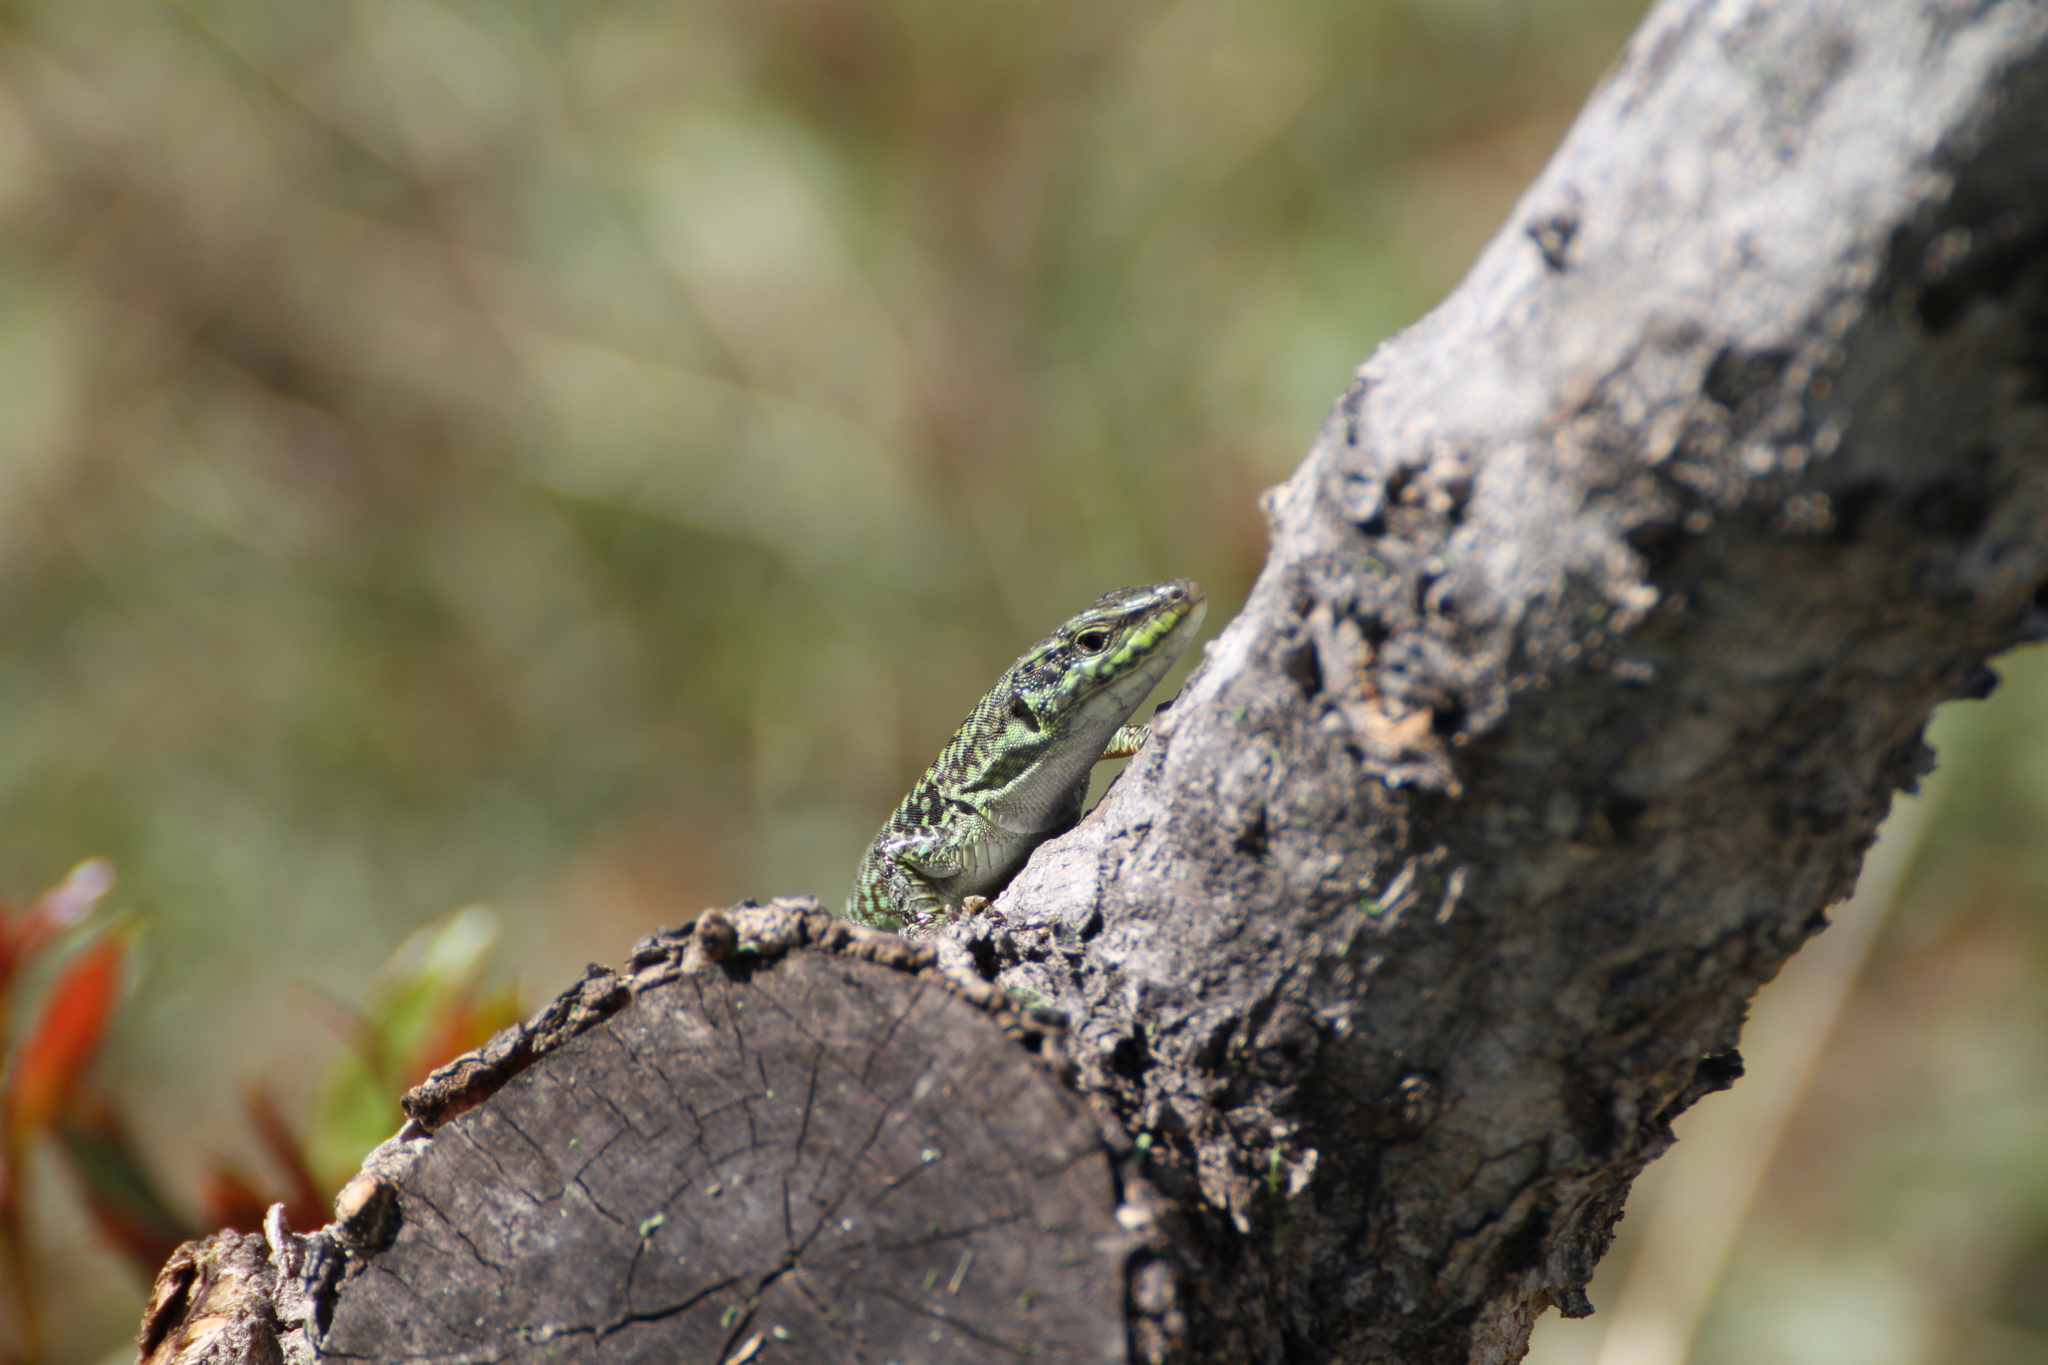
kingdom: Animalia
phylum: Chordata
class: Squamata
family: Lacertidae
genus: Podarcis
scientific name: Podarcis siculus
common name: Italian wall lizard
